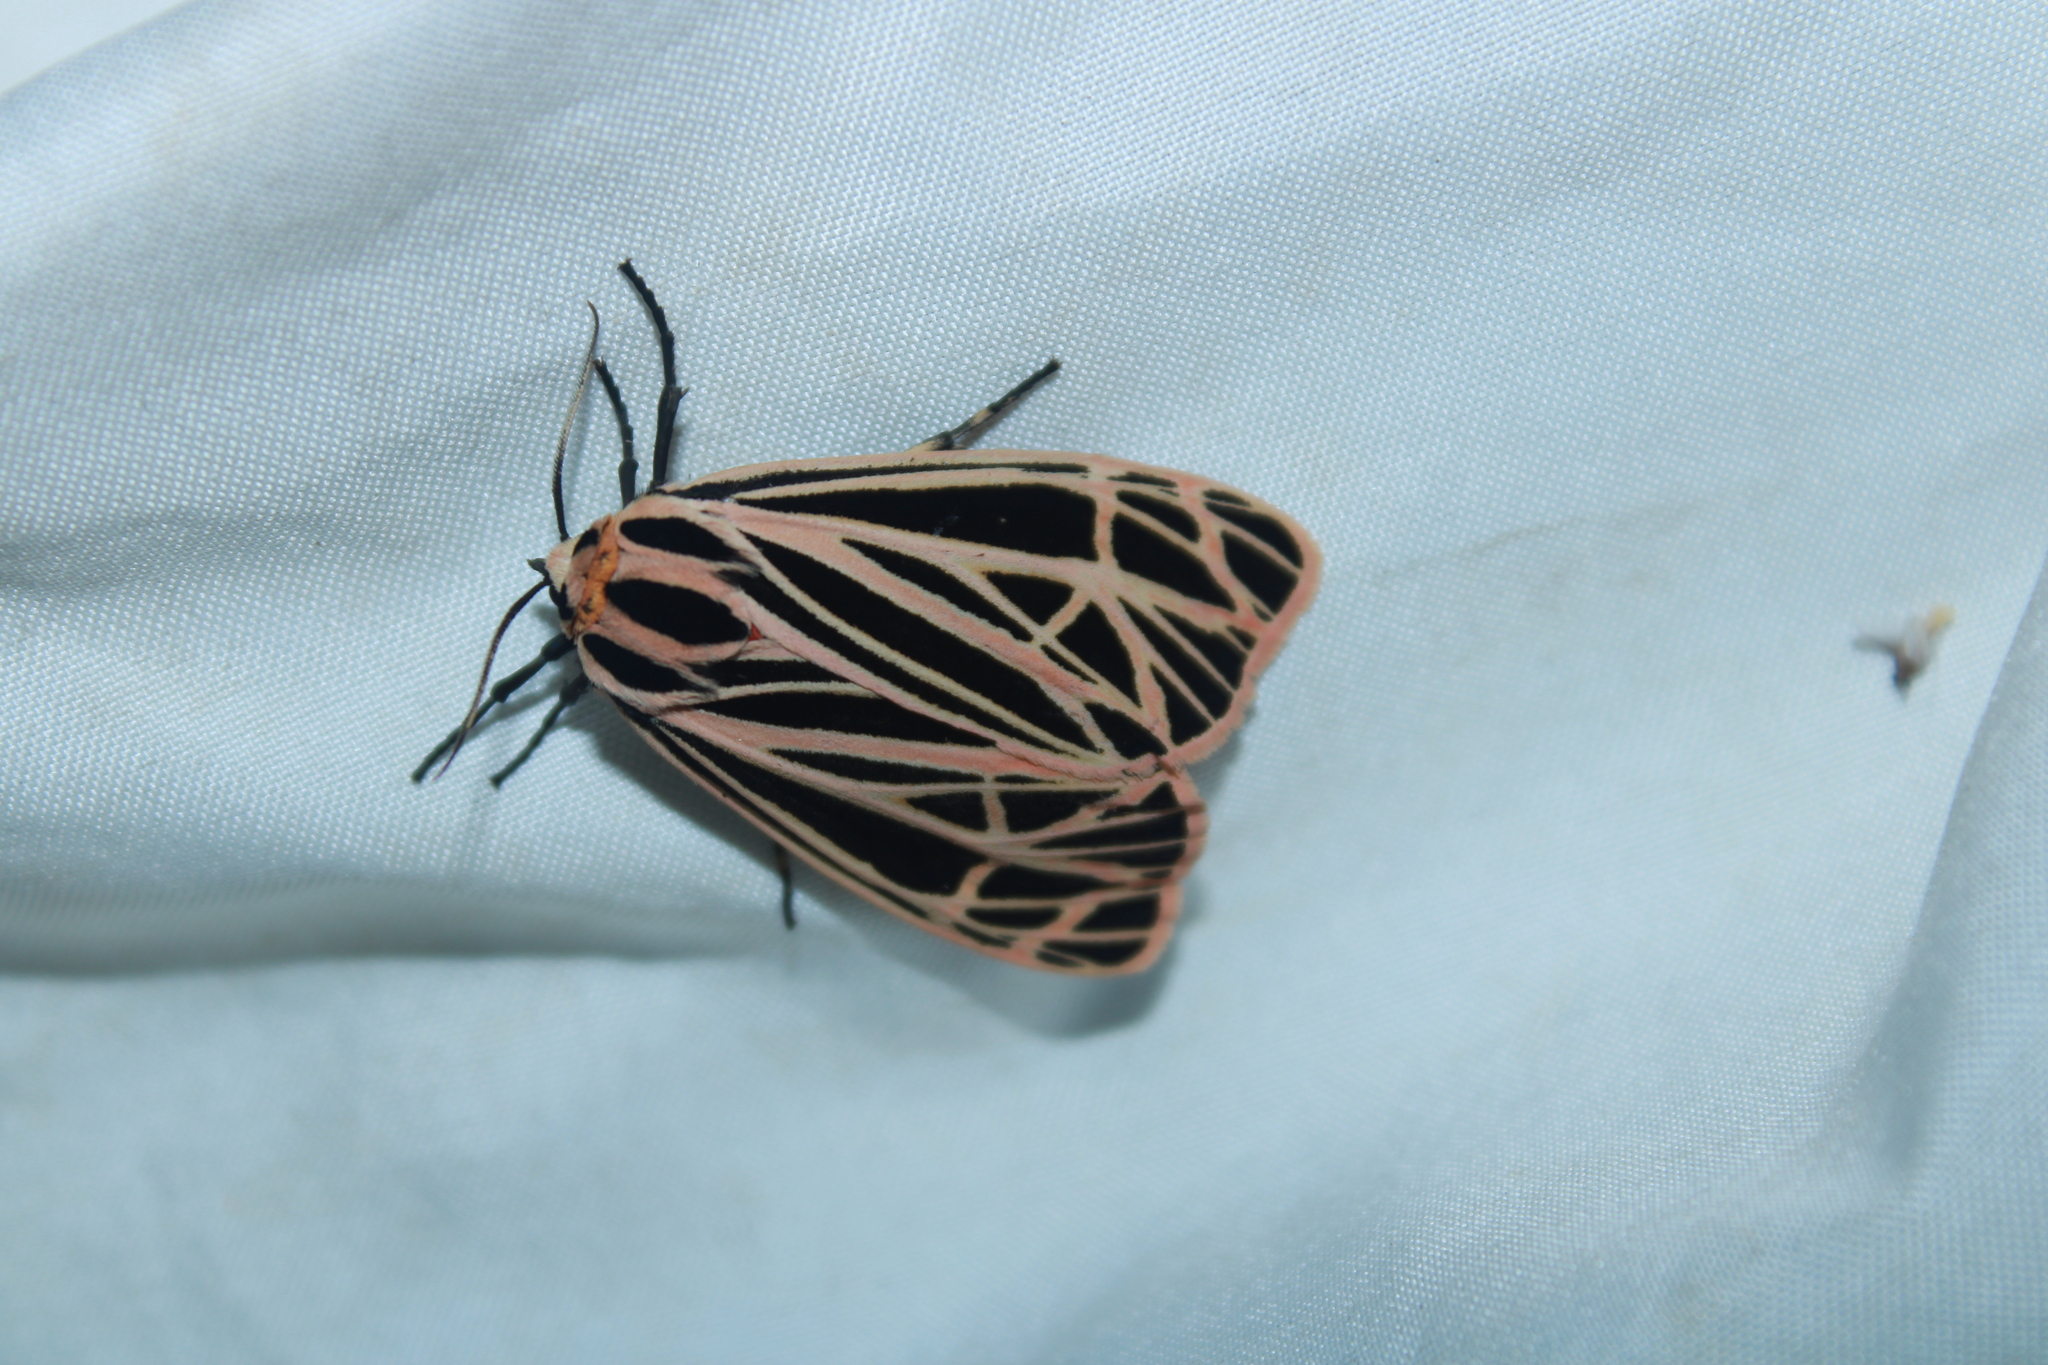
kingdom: Animalia
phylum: Arthropoda
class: Insecta
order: Lepidoptera
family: Erebidae
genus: Grammia
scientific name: Grammia virgo
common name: Virgin tiger moth
